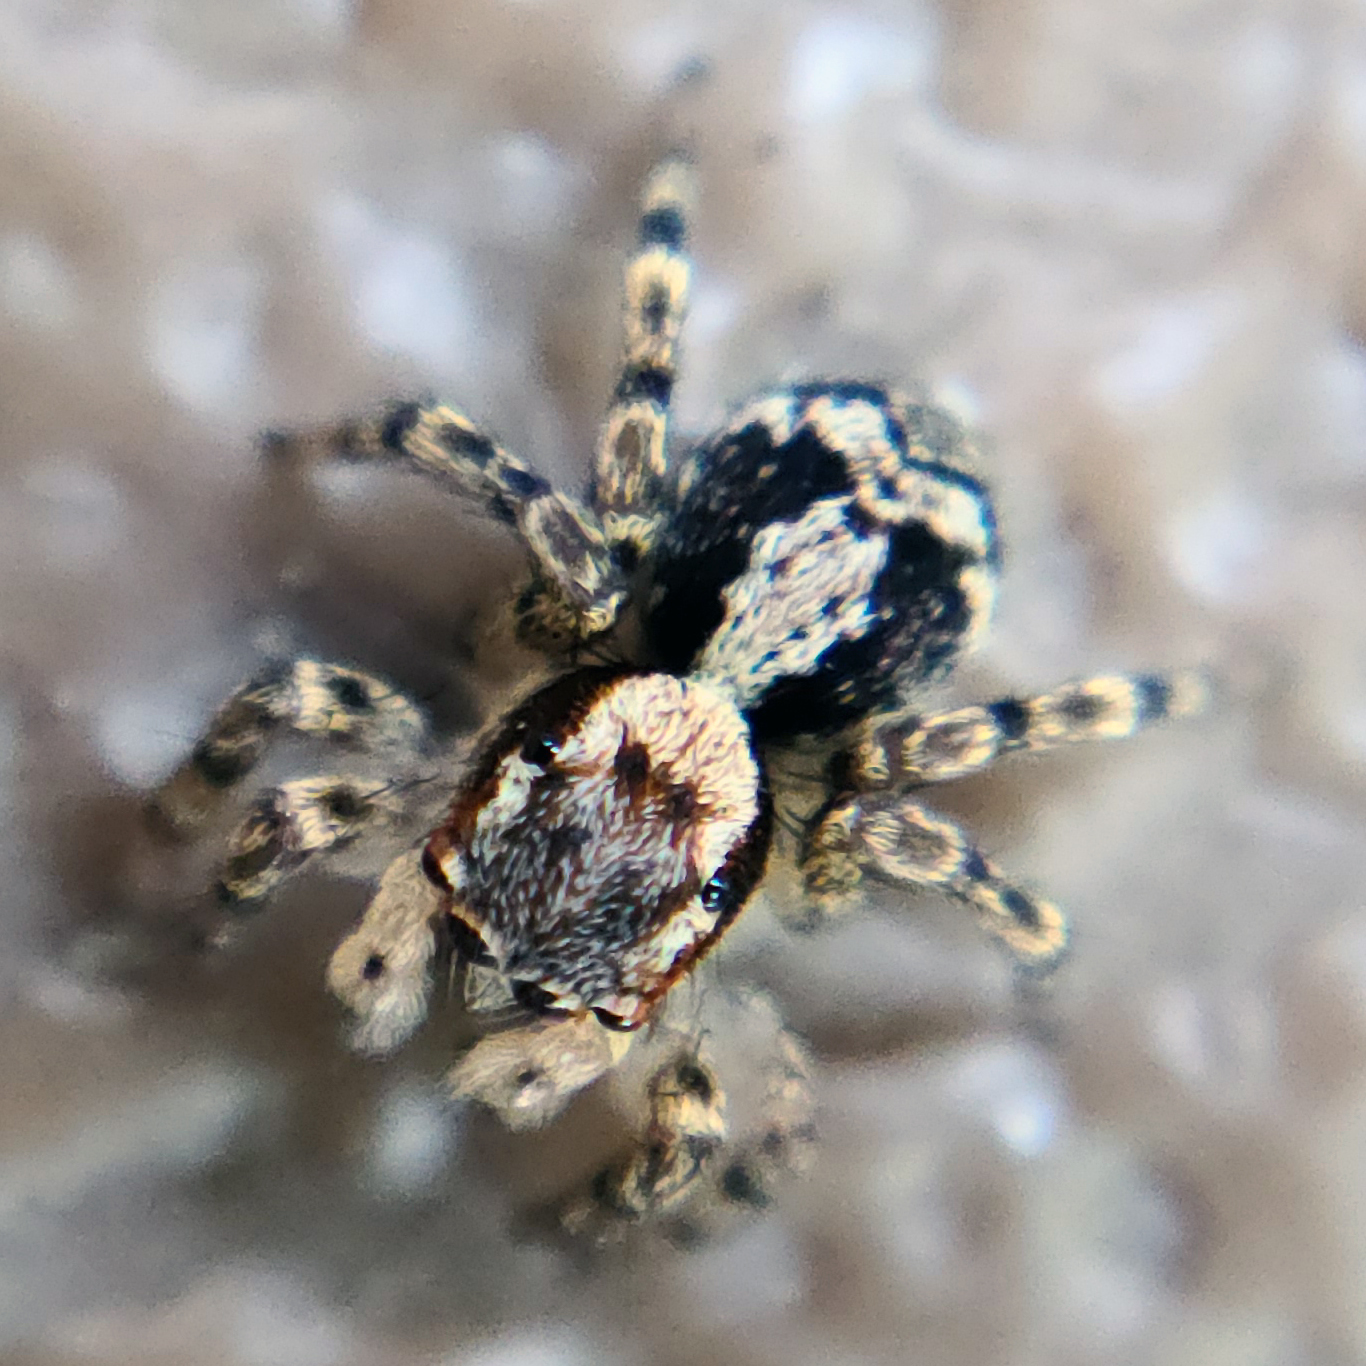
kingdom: Animalia
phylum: Arthropoda
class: Arachnida
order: Araneae
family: Salticidae
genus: Naphrys
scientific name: Naphrys pulex
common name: Flea jumping spider
